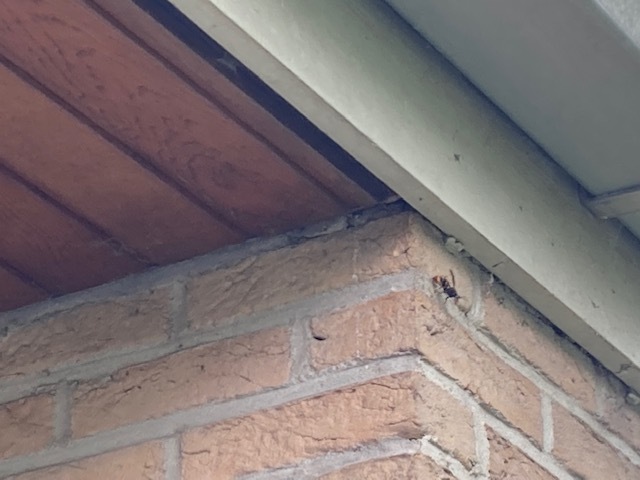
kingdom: Animalia
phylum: Arthropoda
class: Insecta
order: Hymenoptera
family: Vespidae
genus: Vespa
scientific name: Vespa velutina
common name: Asian hornet
